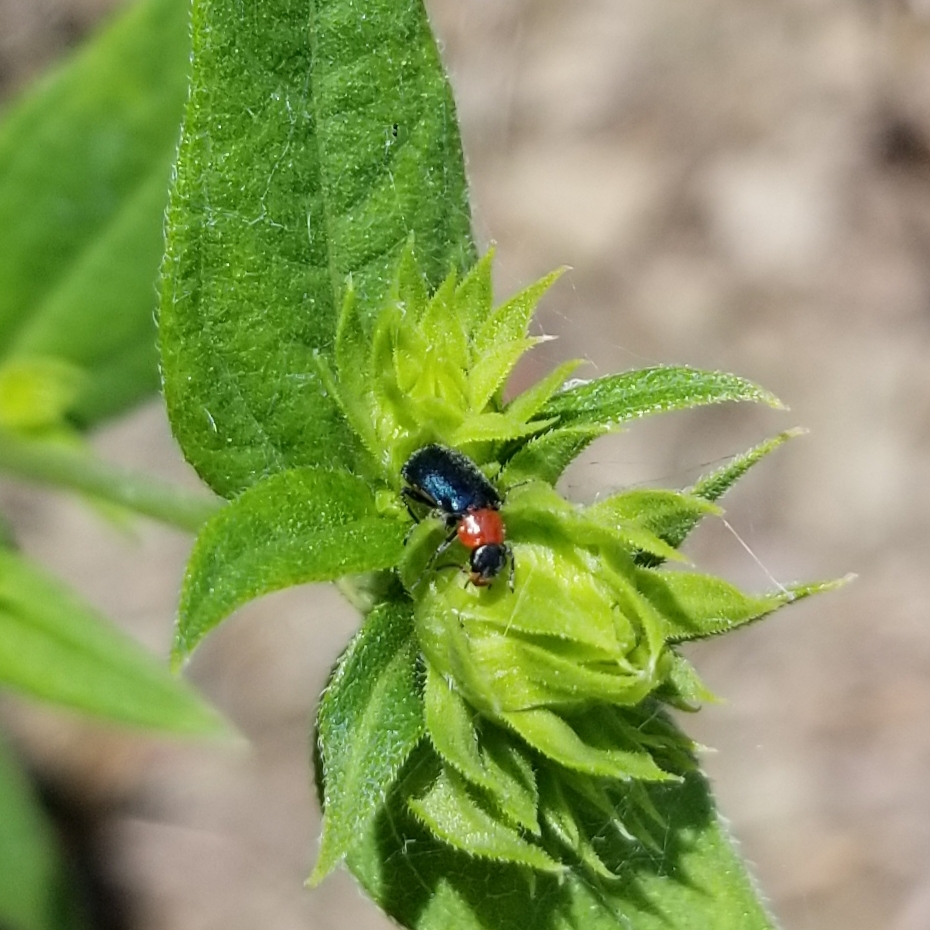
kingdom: Animalia
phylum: Arthropoda
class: Insecta
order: Coleoptera
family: Melyridae
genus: Collops
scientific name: Collops tricolor
